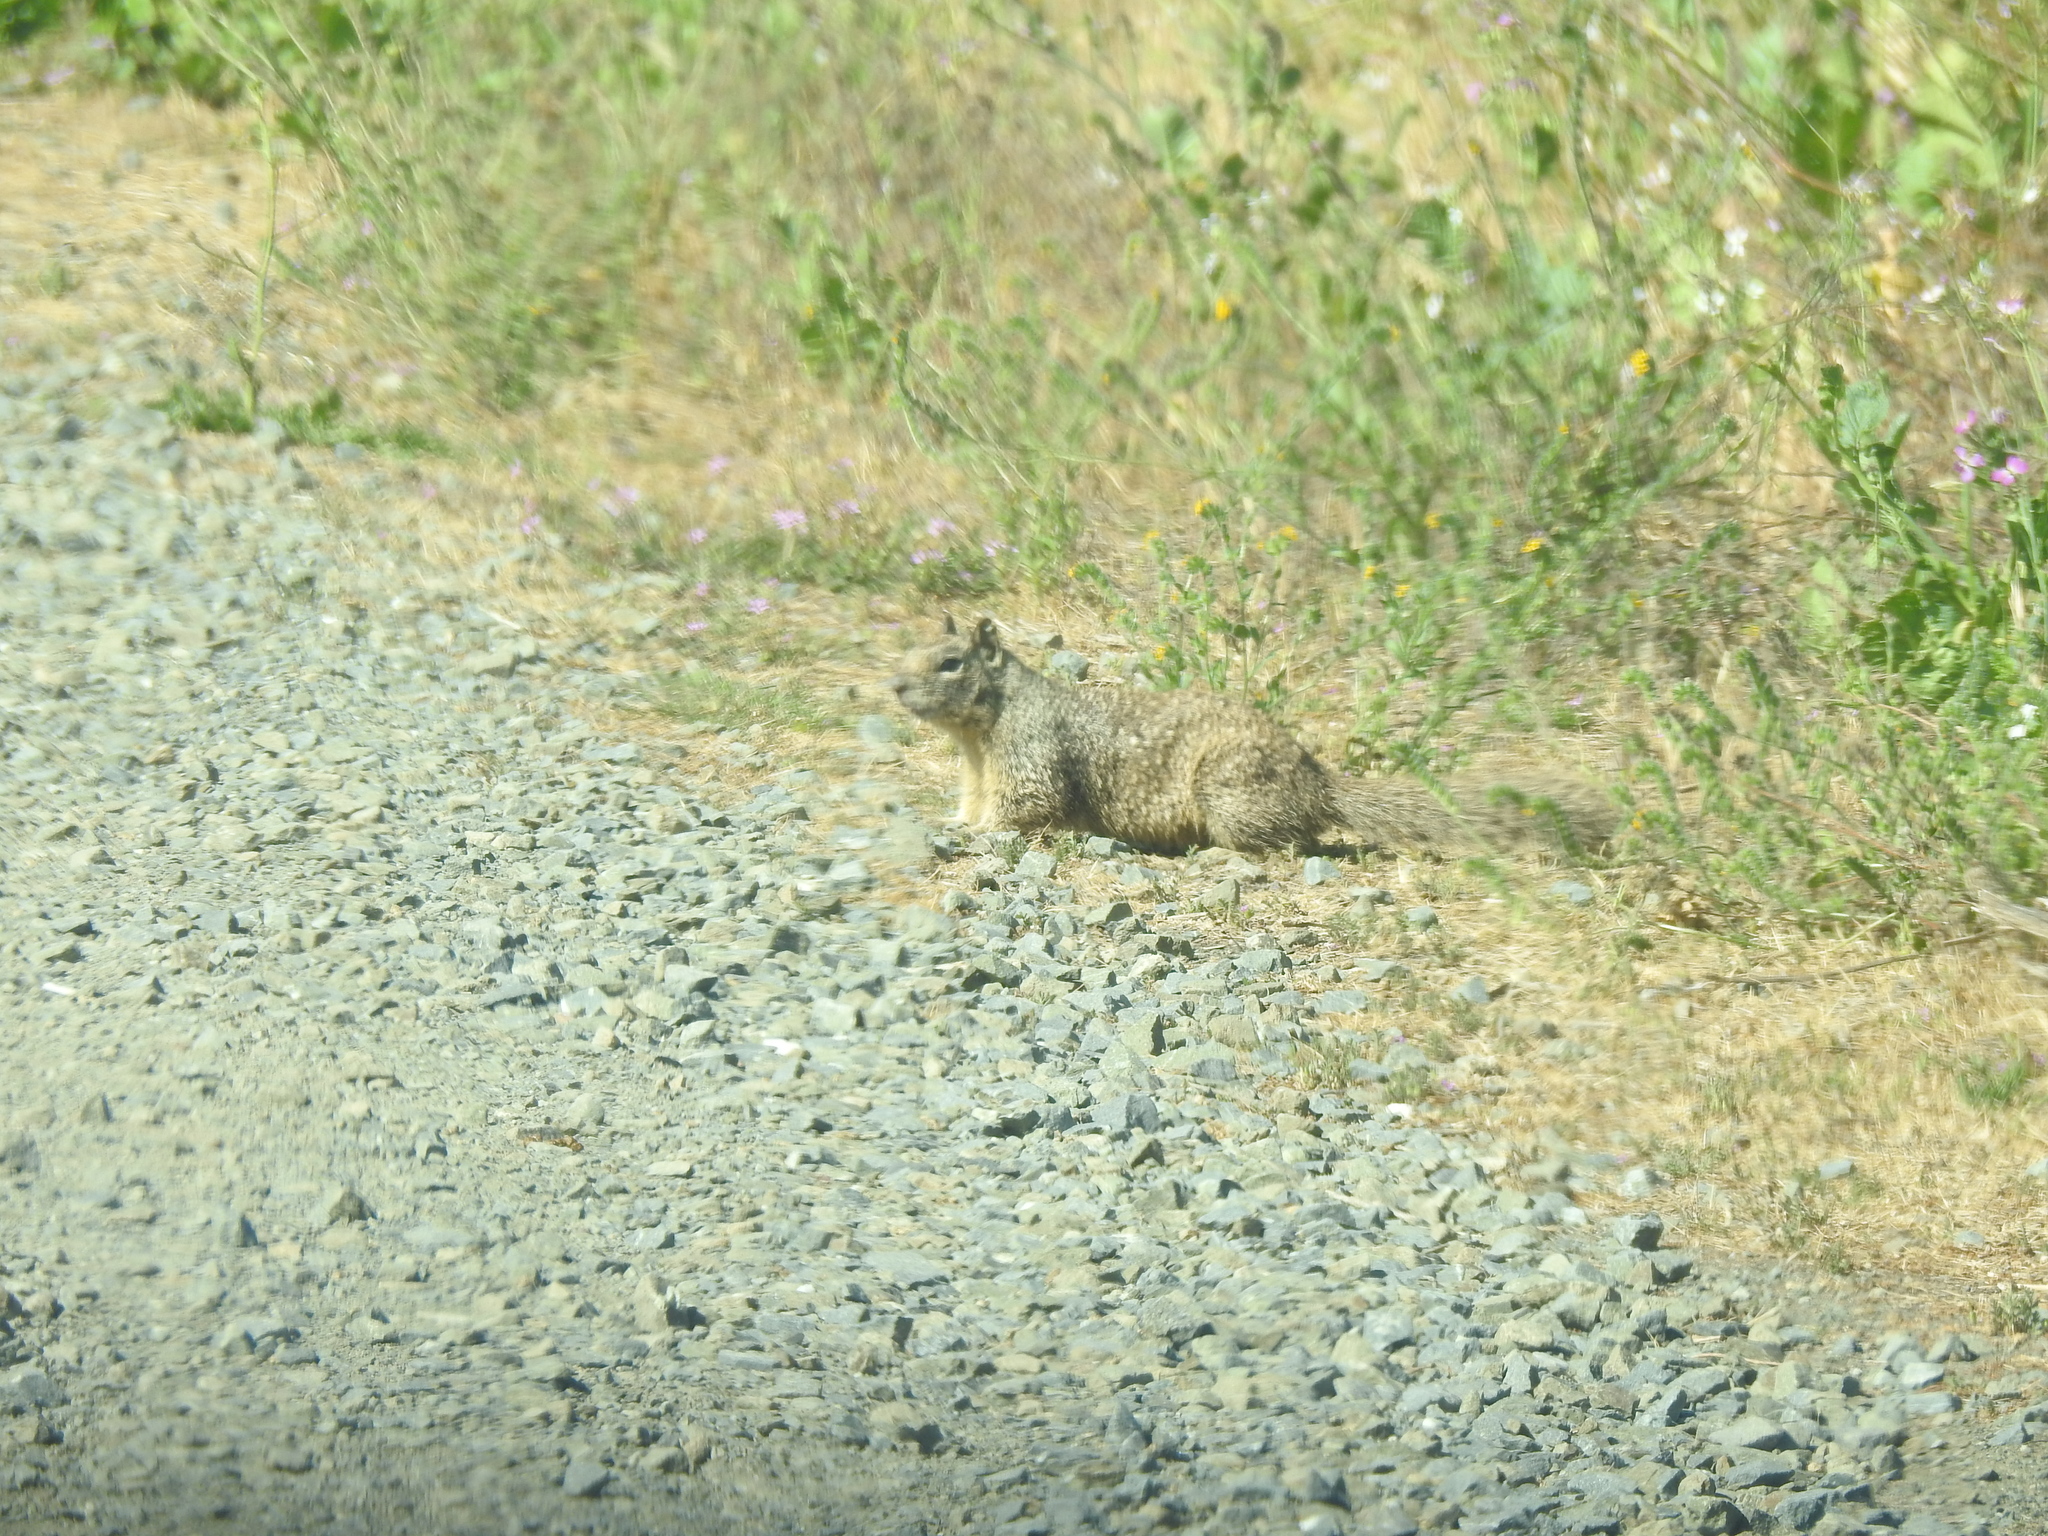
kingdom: Animalia
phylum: Chordata
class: Mammalia
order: Rodentia
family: Sciuridae
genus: Otospermophilus
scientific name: Otospermophilus beecheyi
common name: California ground squirrel
